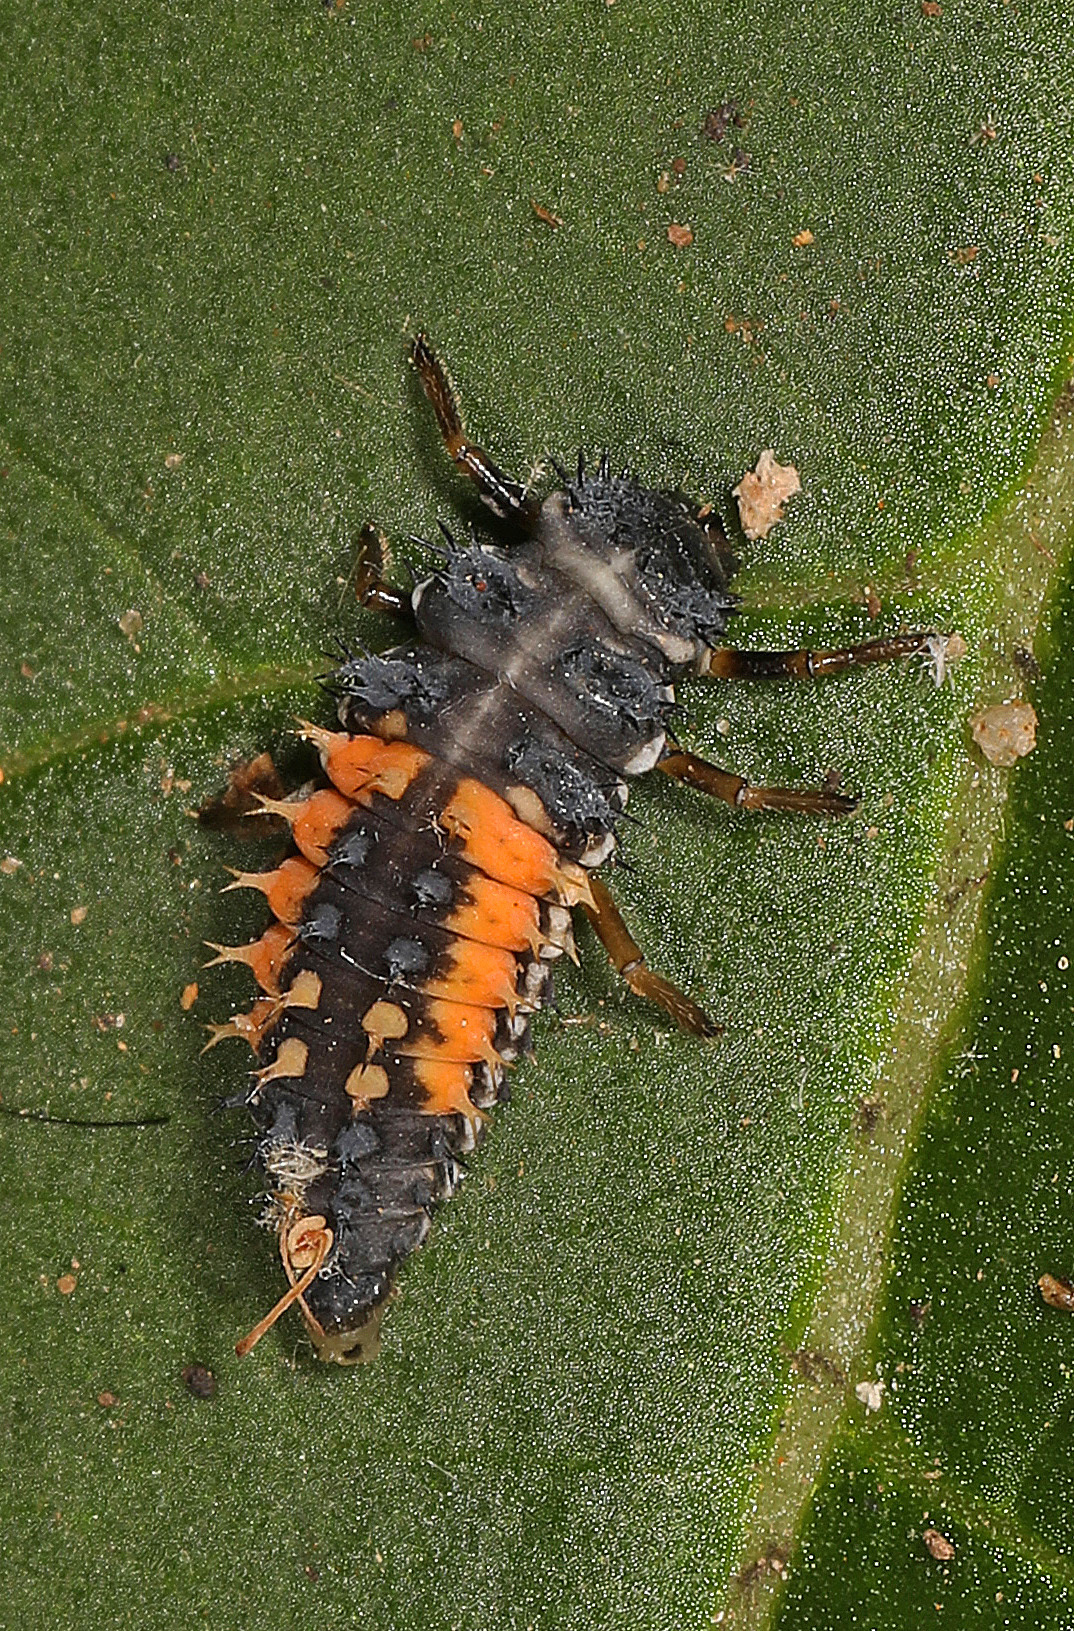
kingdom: Animalia
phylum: Arthropoda
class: Insecta
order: Coleoptera
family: Coccinellidae
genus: Harmonia
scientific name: Harmonia axyridis
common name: Harlequin ladybird
